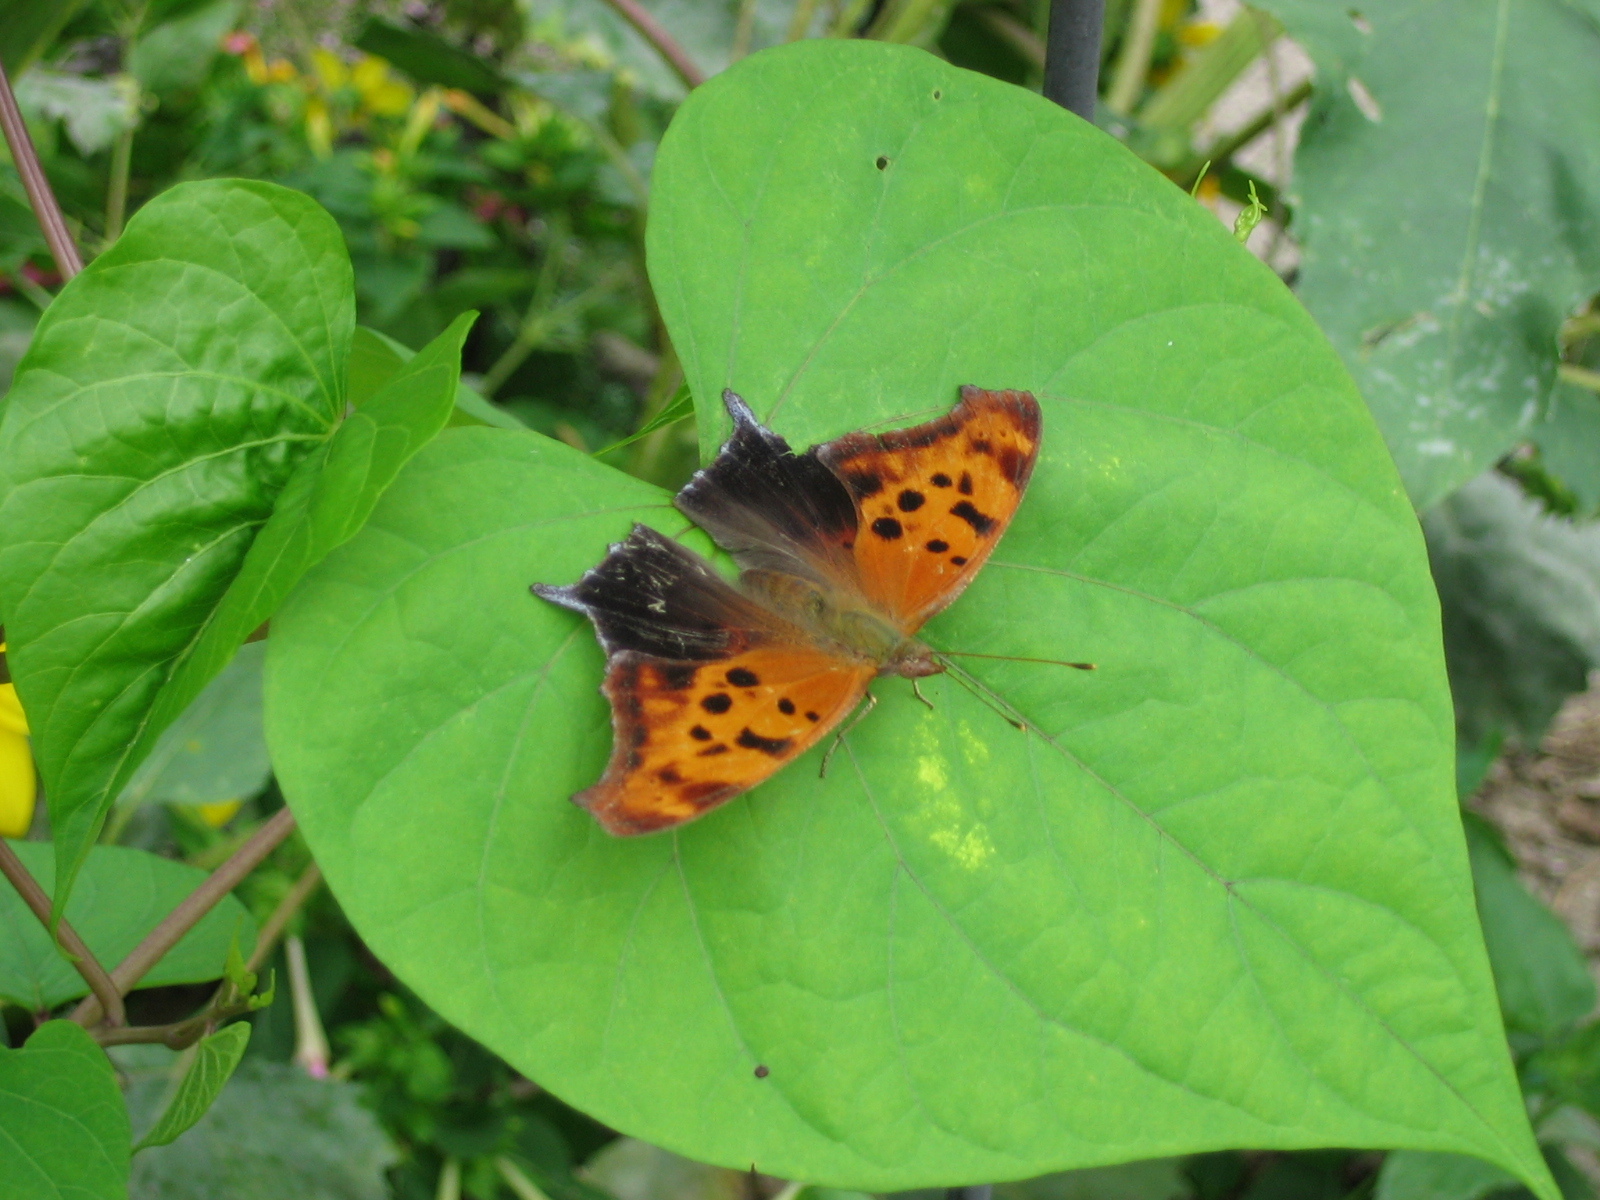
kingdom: Animalia
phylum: Arthropoda
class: Insecta
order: Lepidoptera
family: Nymphalidae
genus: Polygonia
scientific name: Polygonia interrogationis
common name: Question mark
